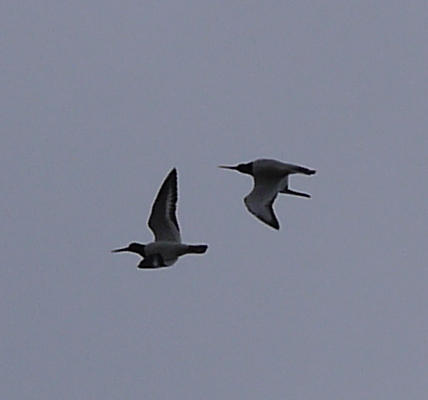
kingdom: Animalia
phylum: Chordata
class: Aves
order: Charadriiformes
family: Haematopodidae
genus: Haematopus
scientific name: Haematopus ostralegus
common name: Eurasian oystercatcher
